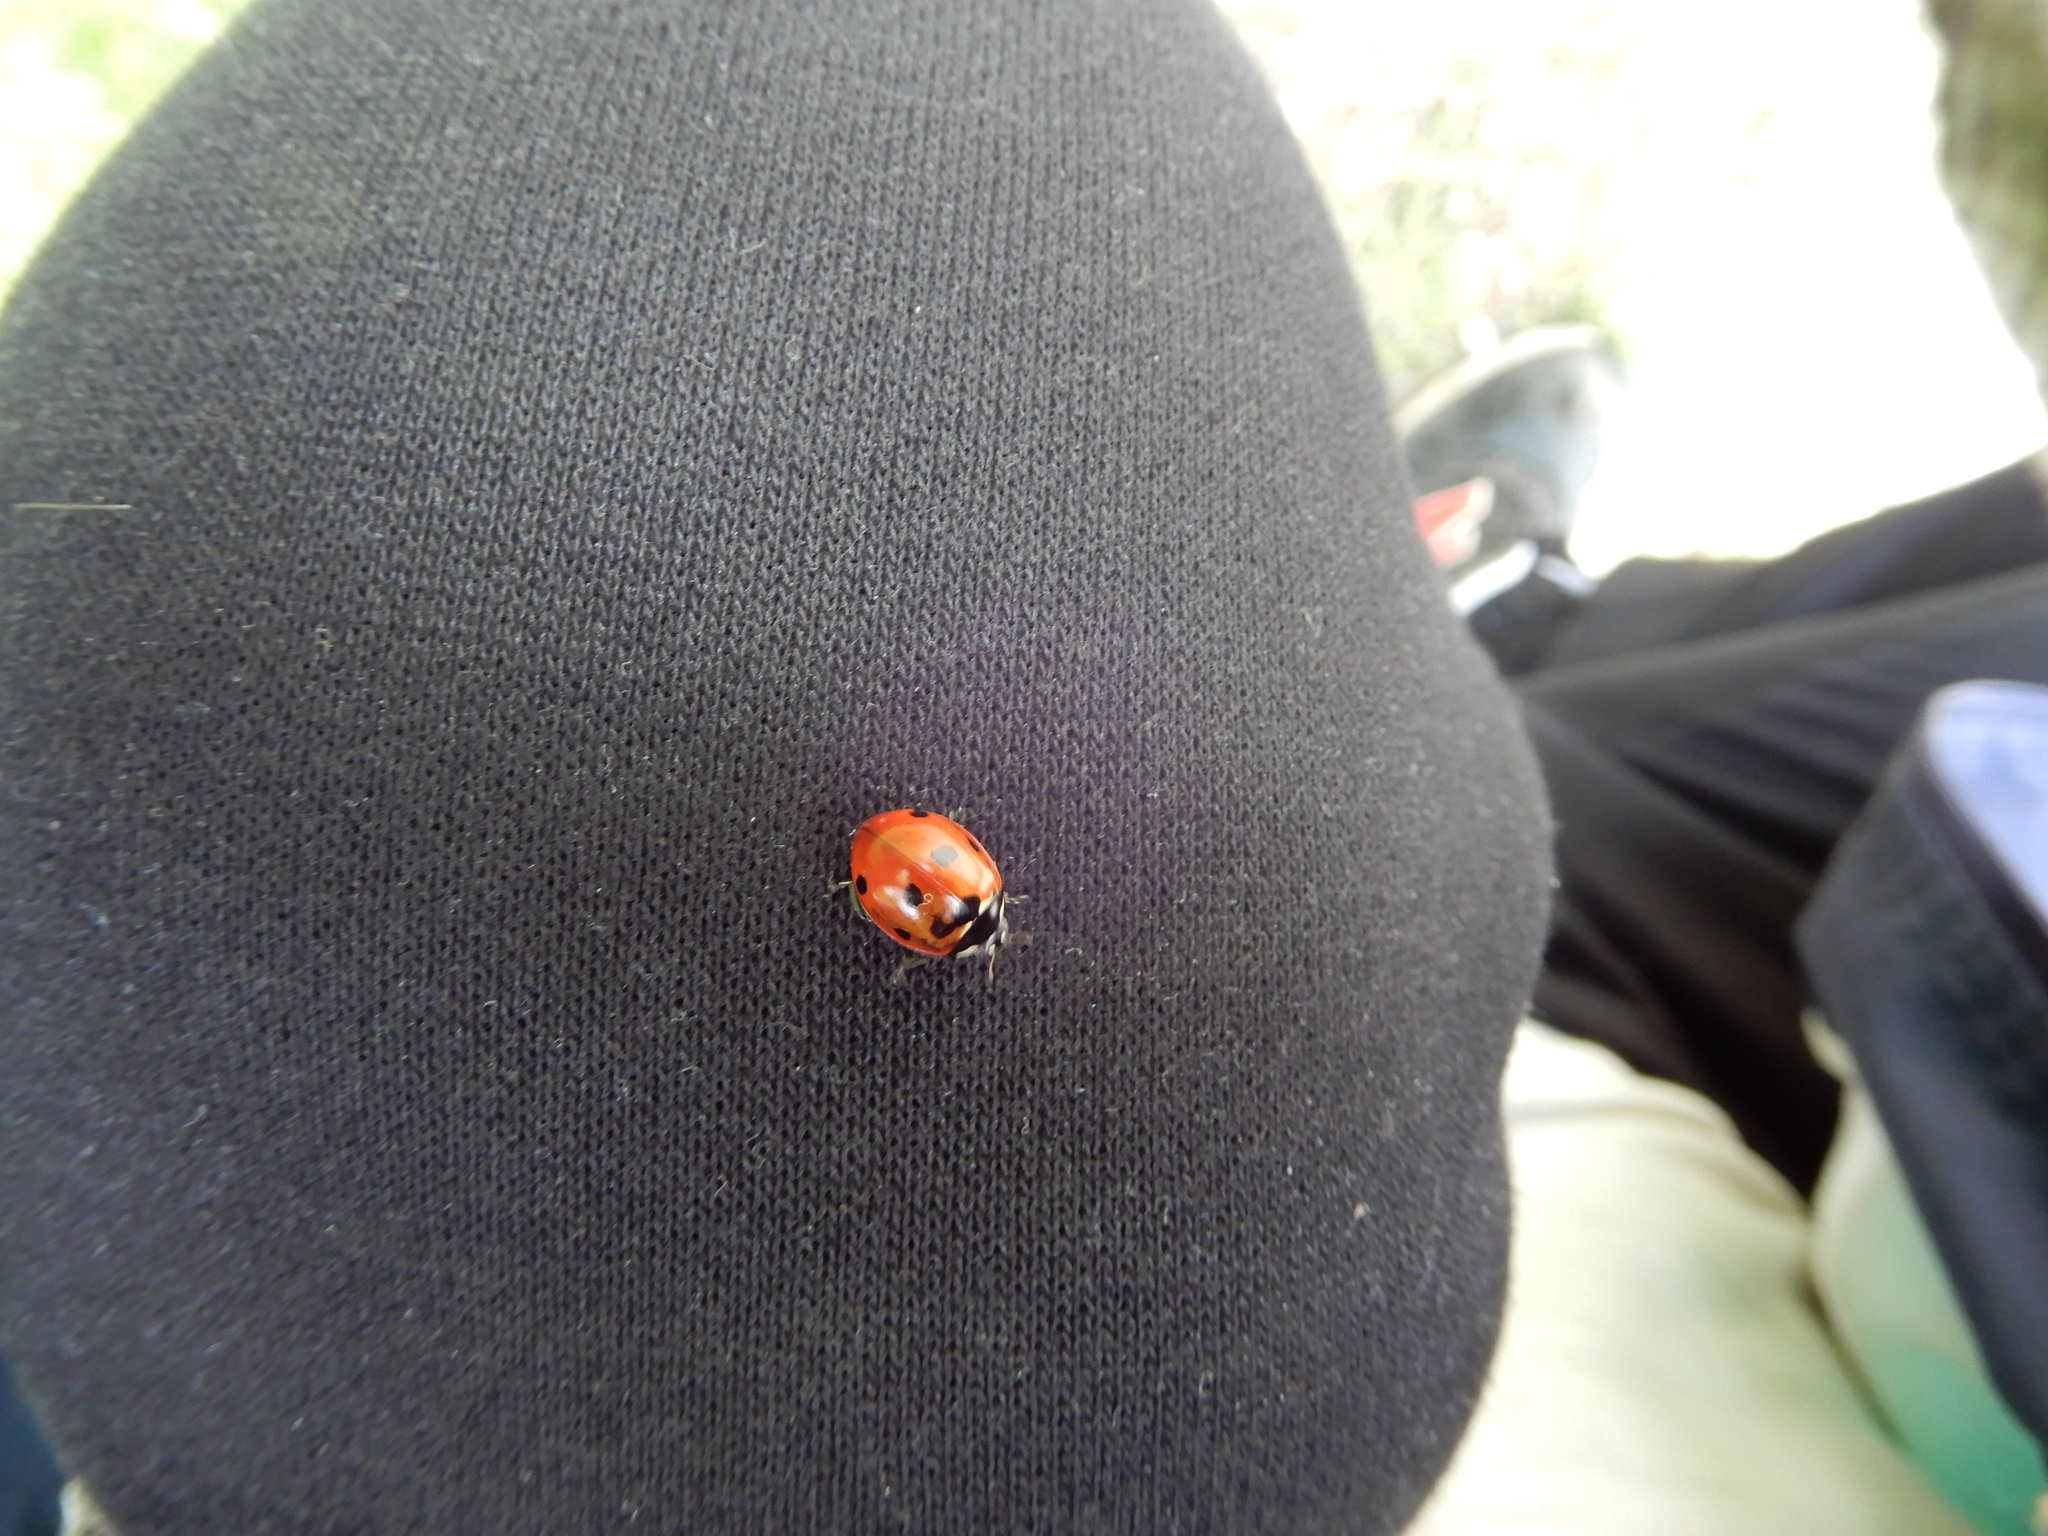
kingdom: Animalia
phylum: Arthropoda
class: Insecta
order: Coleoptera
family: Coccinellidae
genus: Coccinella
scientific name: Coccinella septempunctata
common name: Sevenspotted lady beetle
